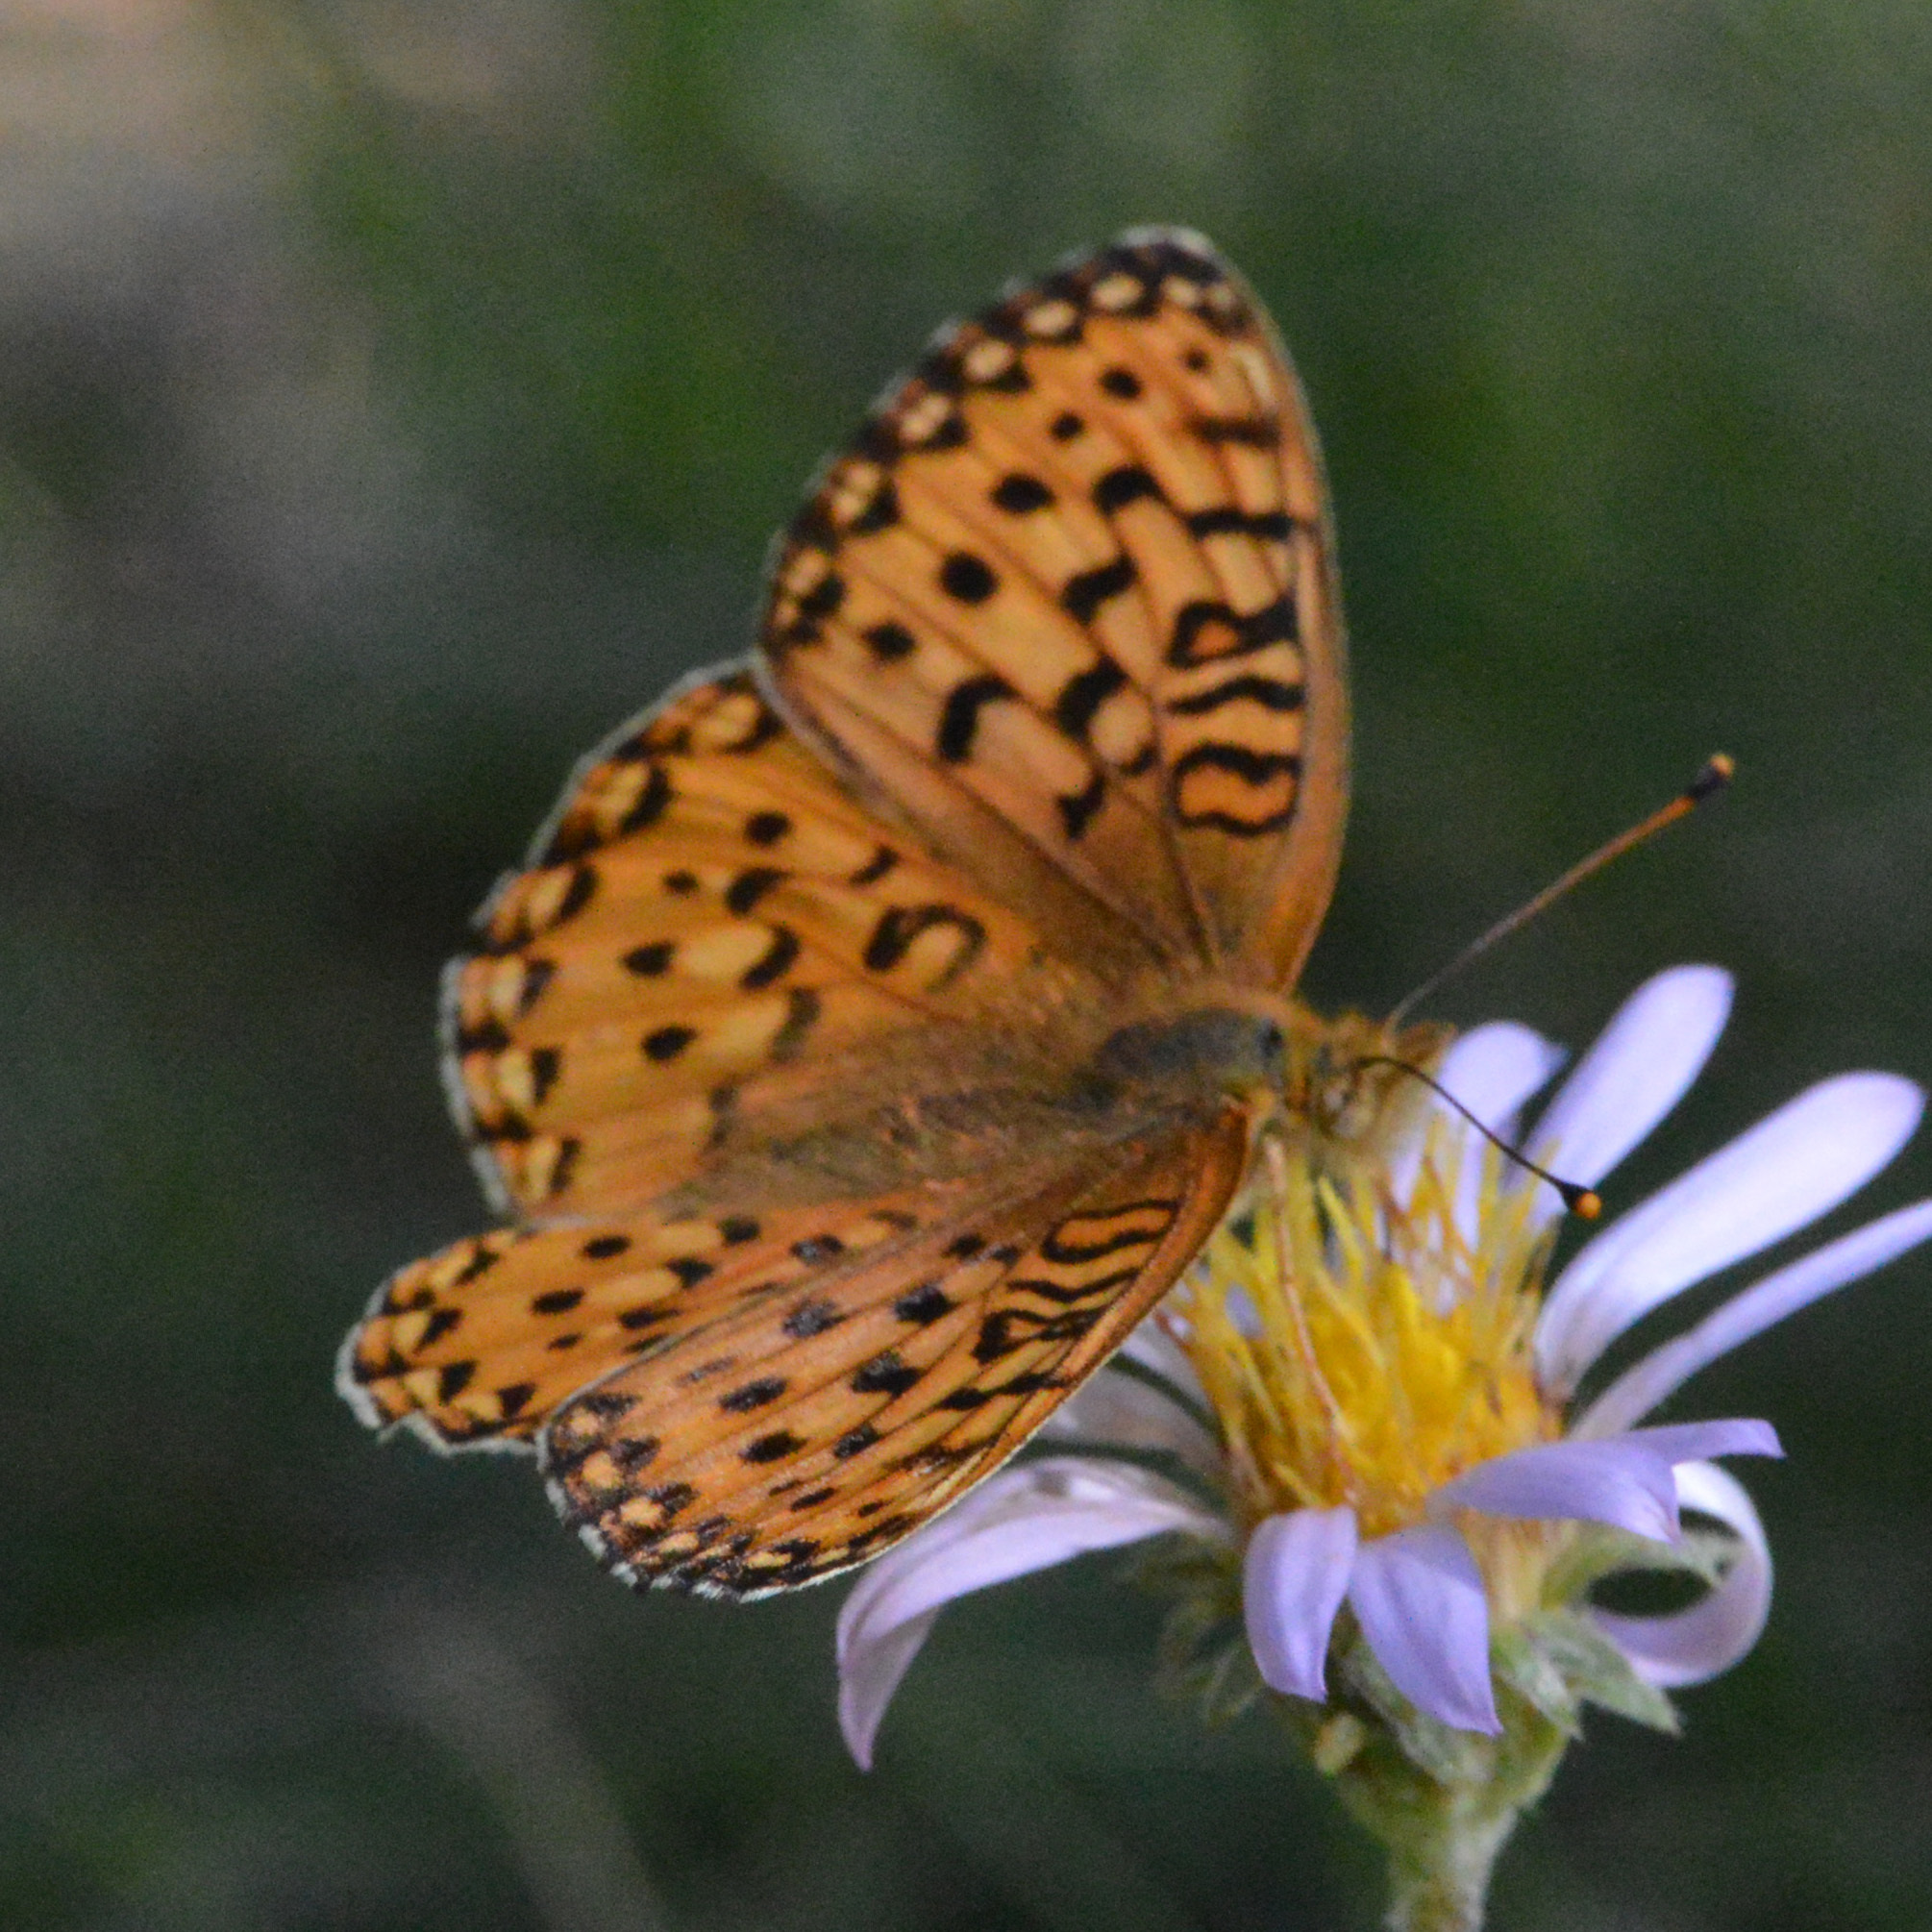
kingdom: Animalia
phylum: Arthropoda
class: Insecta
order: Lepidoptera
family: Nymphalidae
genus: Speyeria
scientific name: Speyeria mormonia
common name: Mormon fritillary
